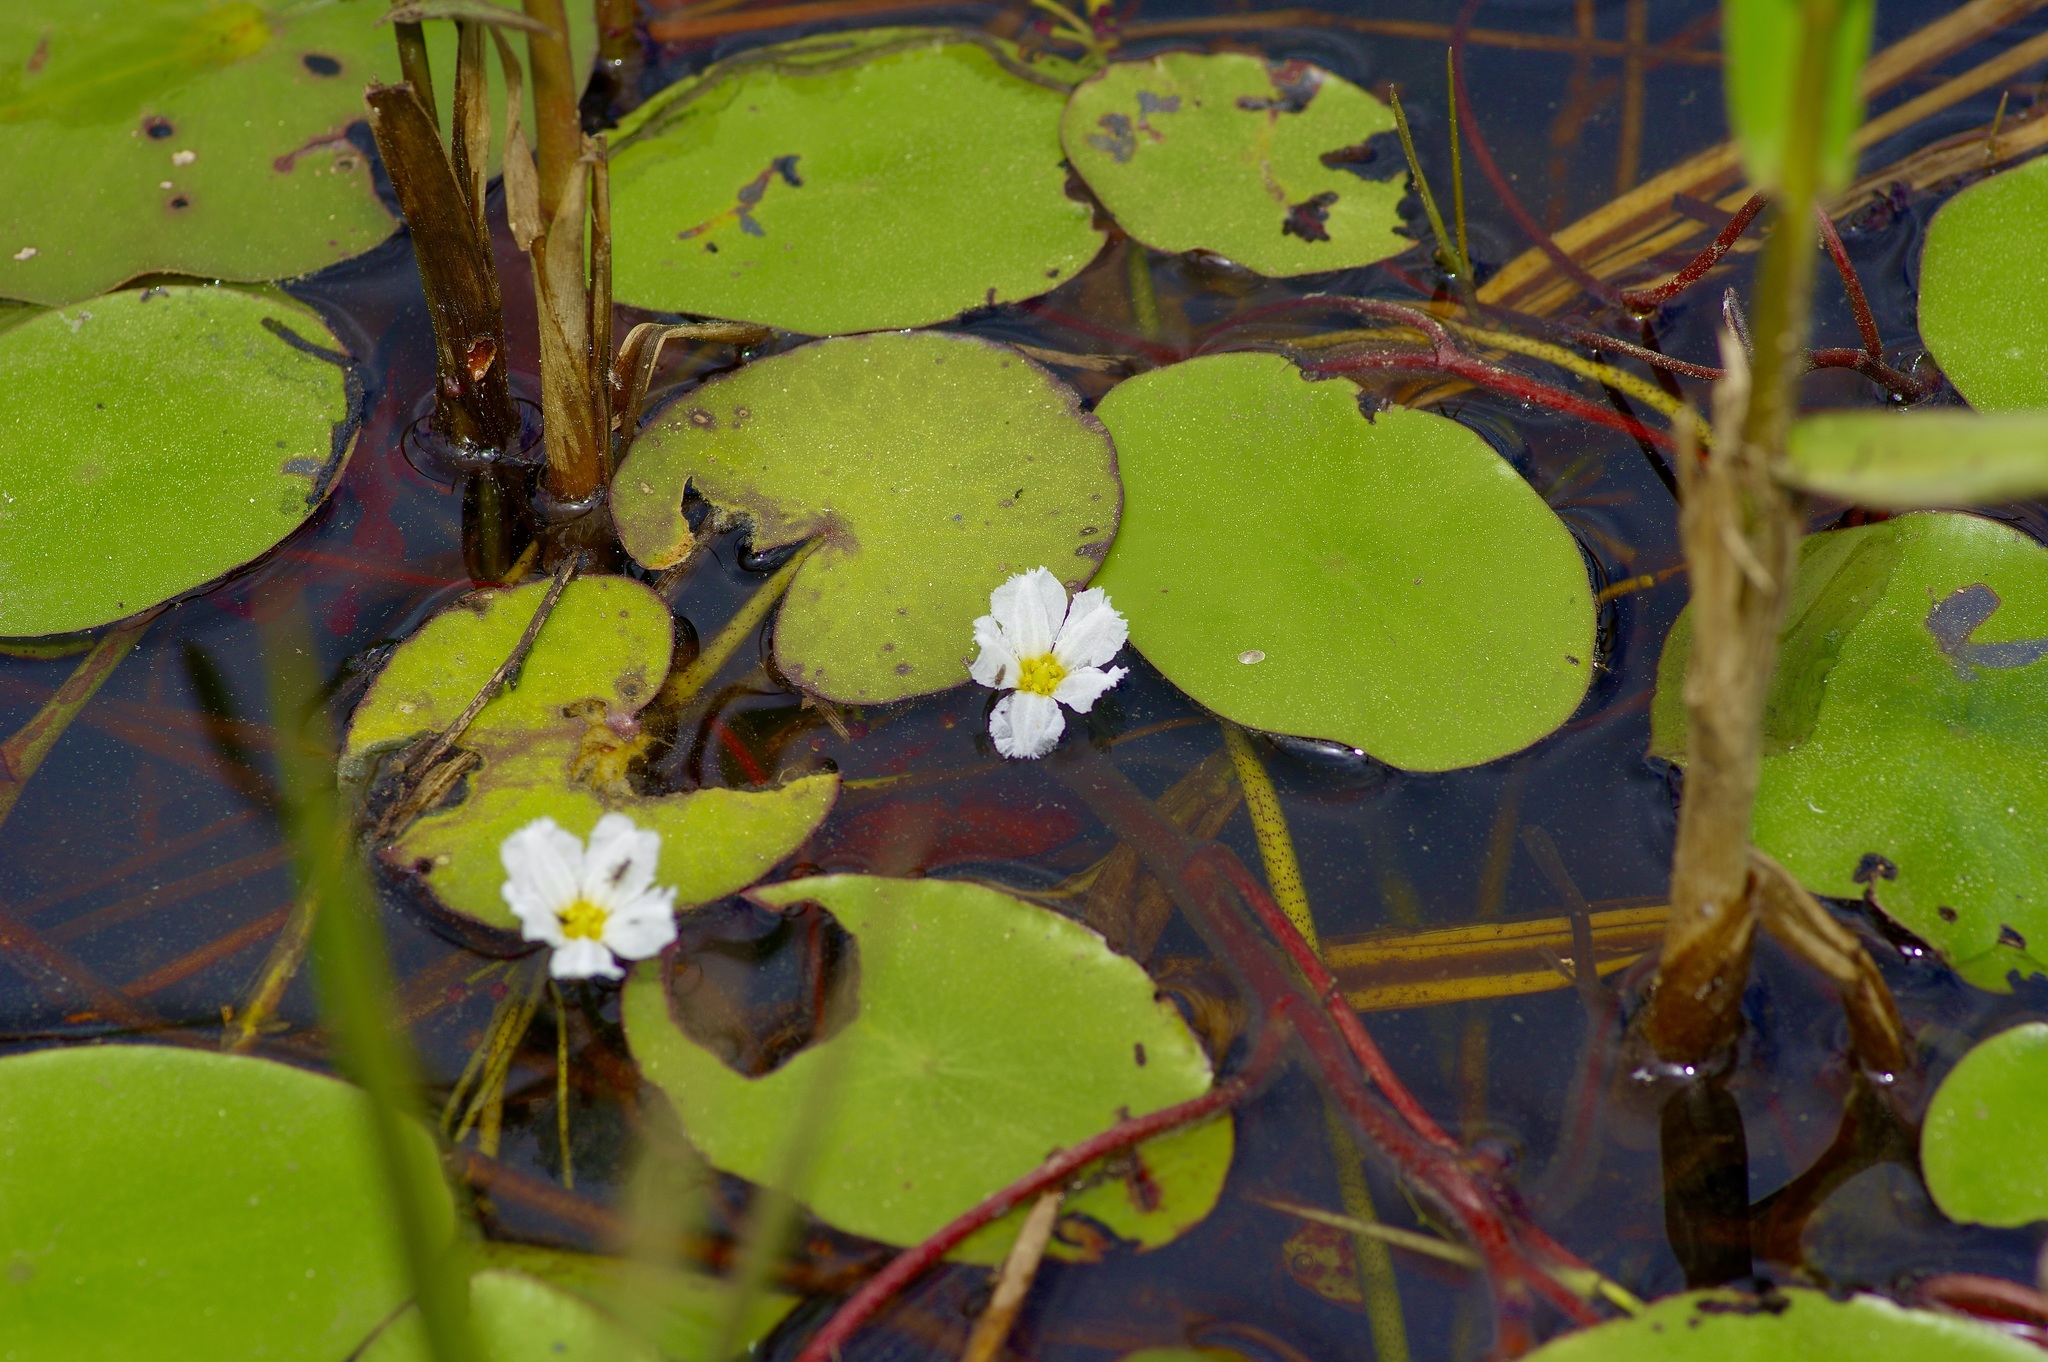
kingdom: Plantae
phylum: Tracheophyta
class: Magnoliopsida
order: Asterales
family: Menyanthaceae
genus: Nymphoides
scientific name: Nymphoides aquatica
